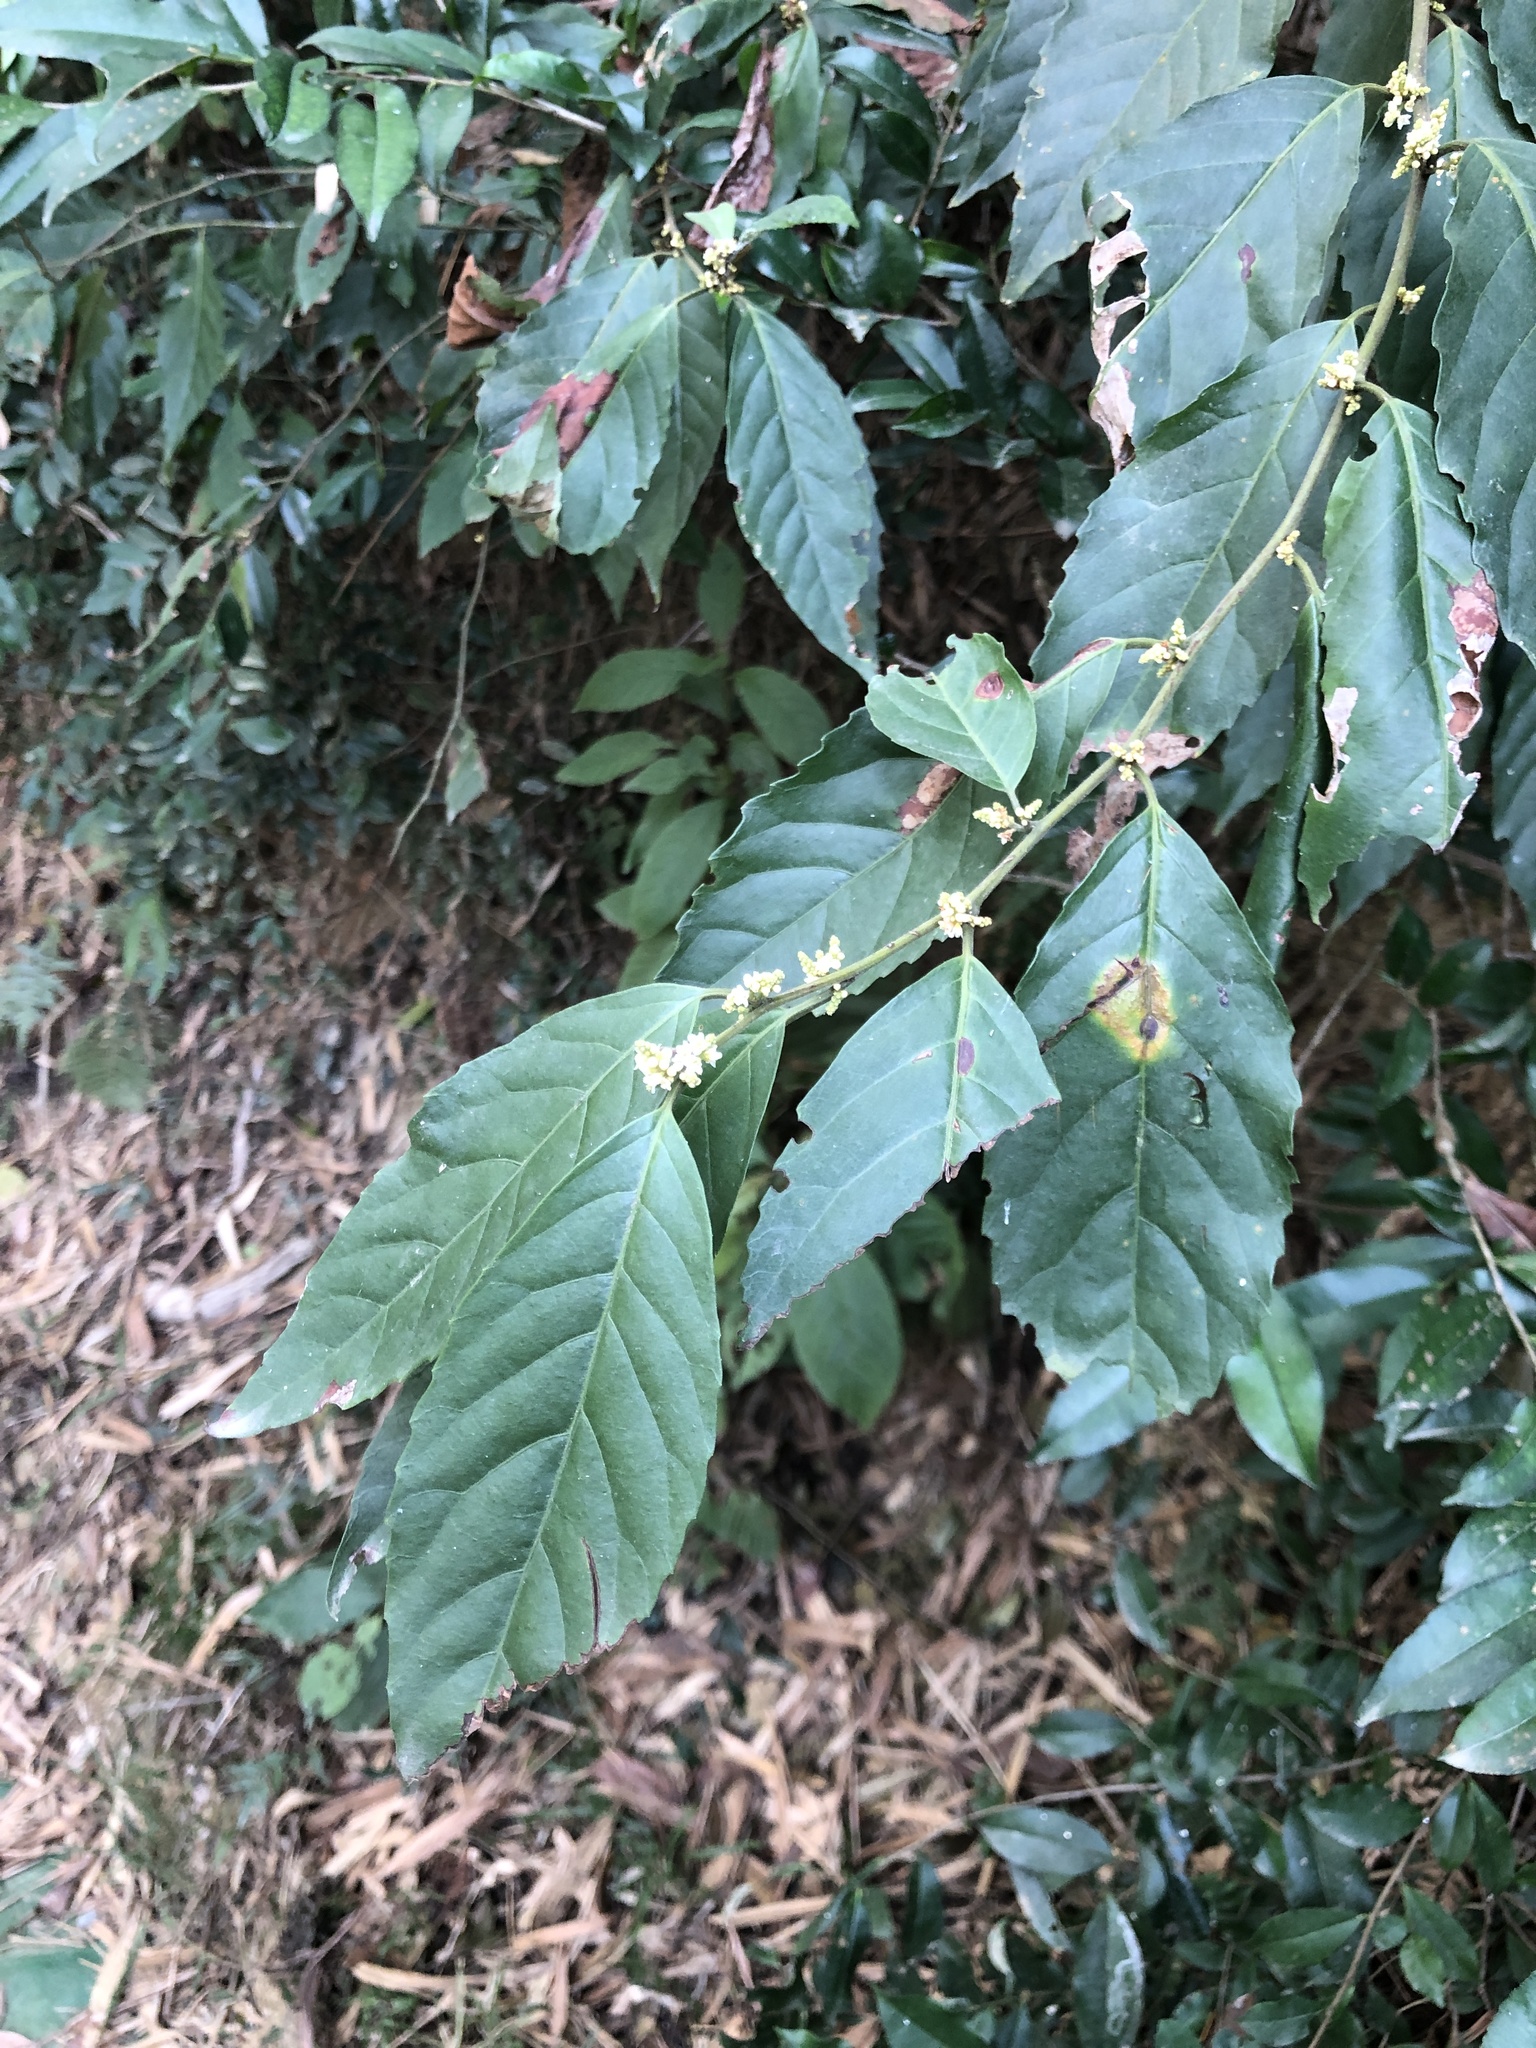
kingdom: Plantae
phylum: Tracheophyta
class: Magnoliopsida
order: Ericales
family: Primulaceae
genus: Maesa
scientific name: Maesa perlaria
